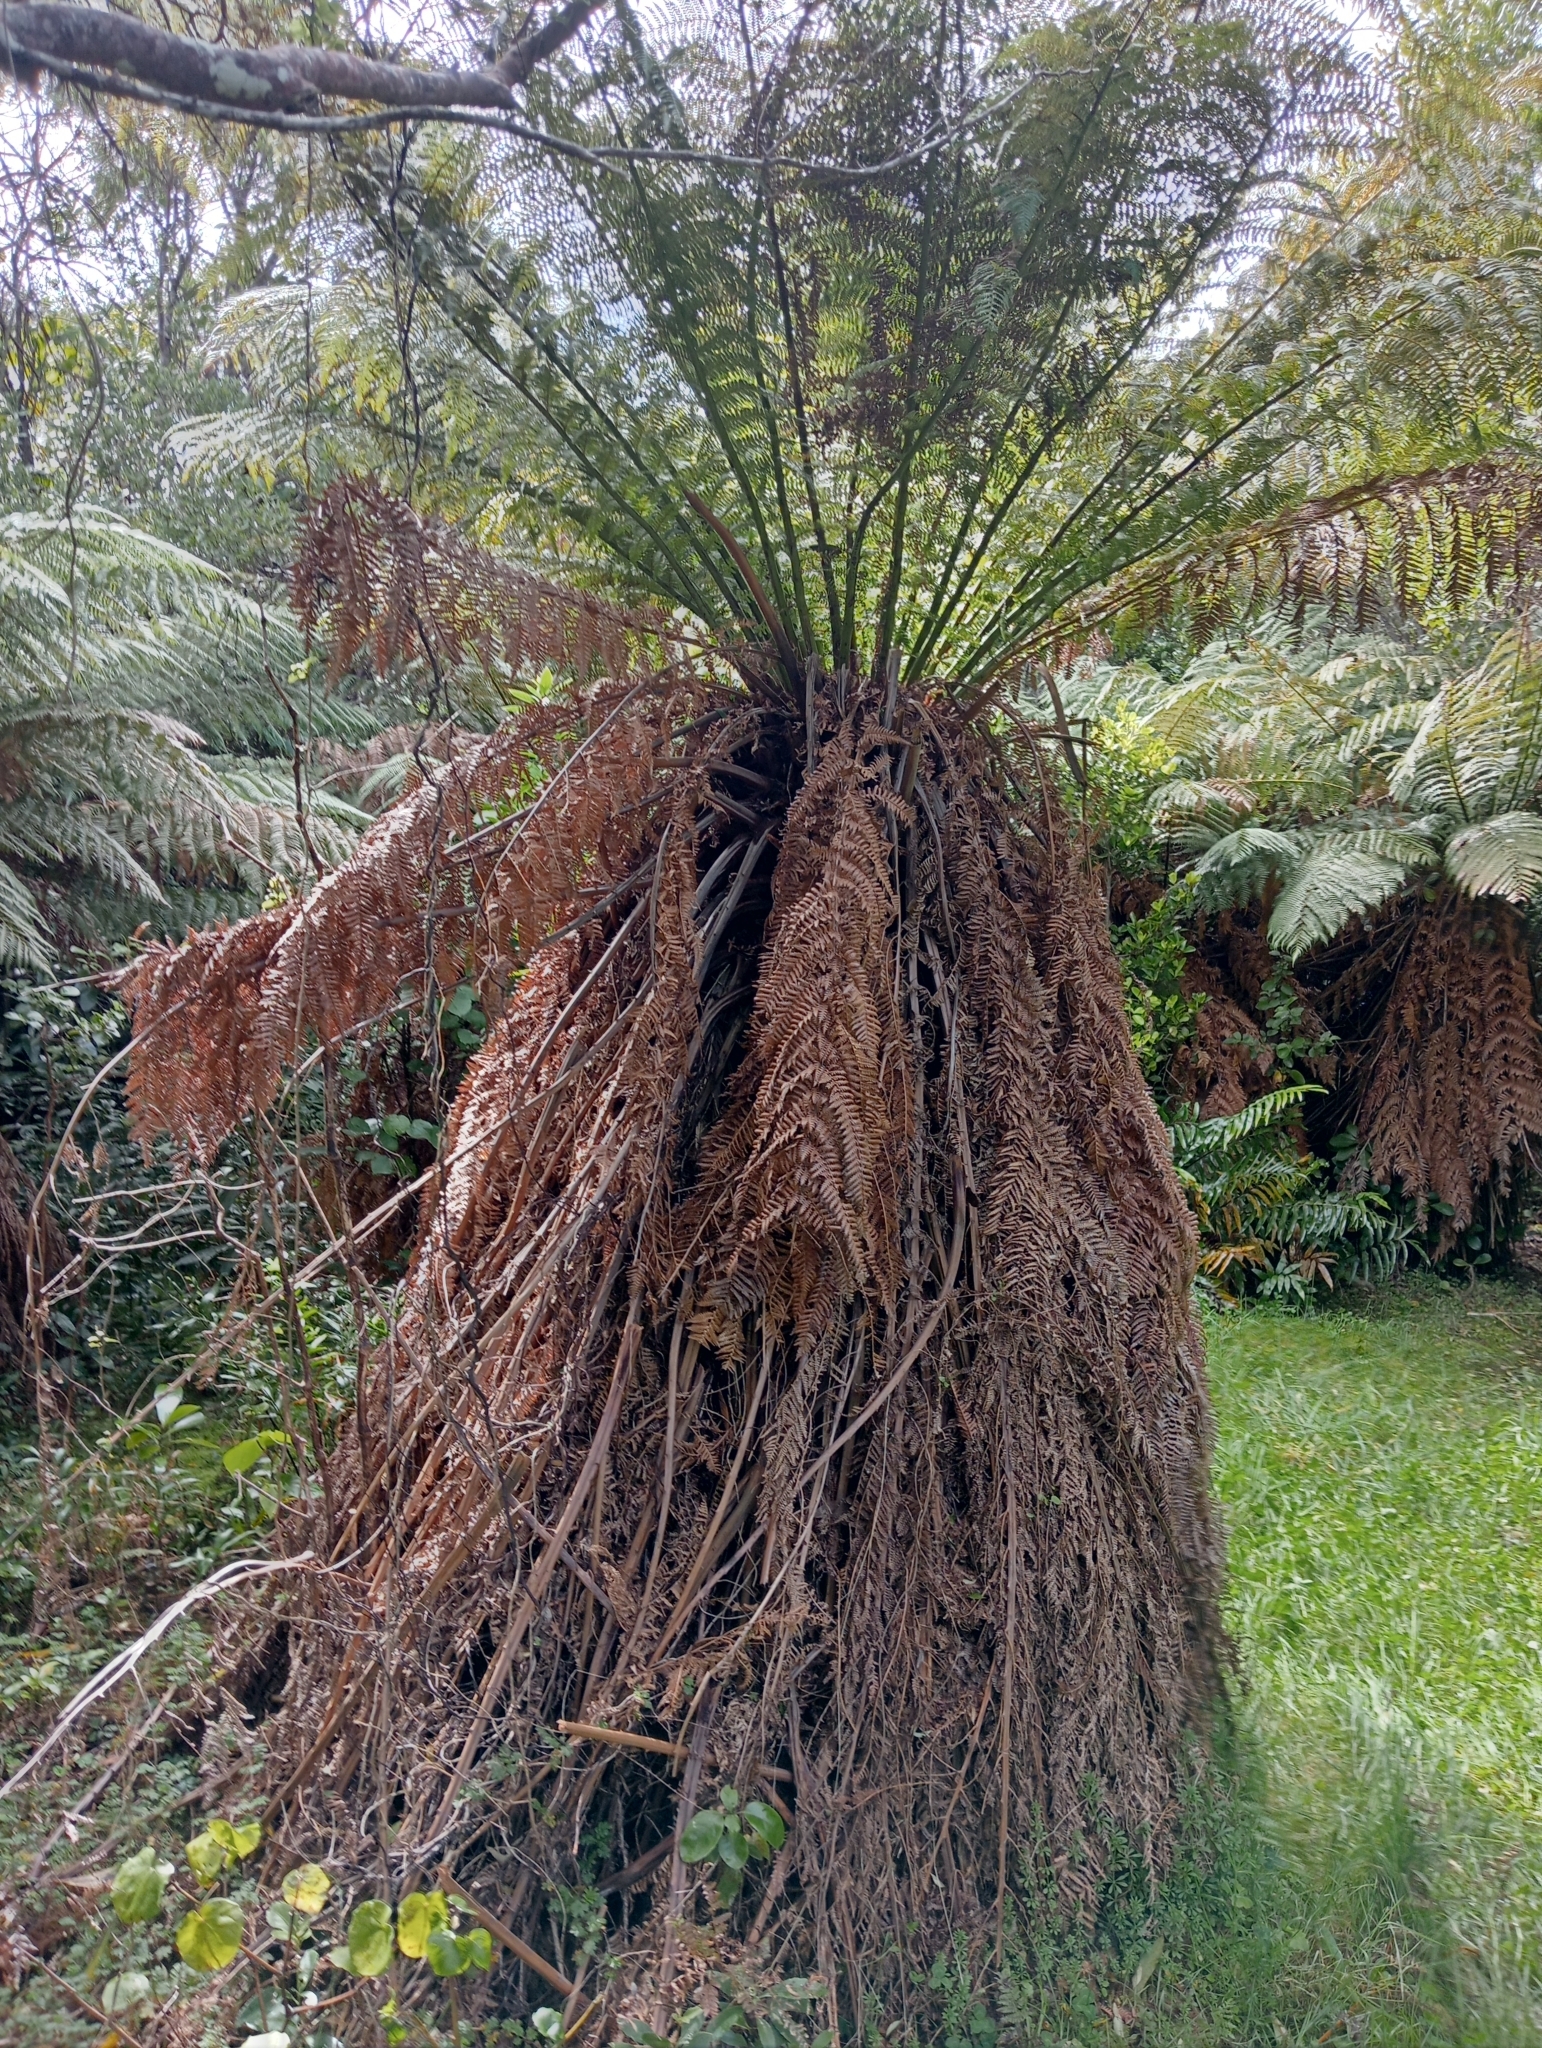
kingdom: Plantae
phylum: Tracheophyta
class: Polypodiopsida
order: Cyatheales
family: Dicksoniaceae
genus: Dicksonia
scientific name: Dicksonia fibrosa
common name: Golden tree fern
